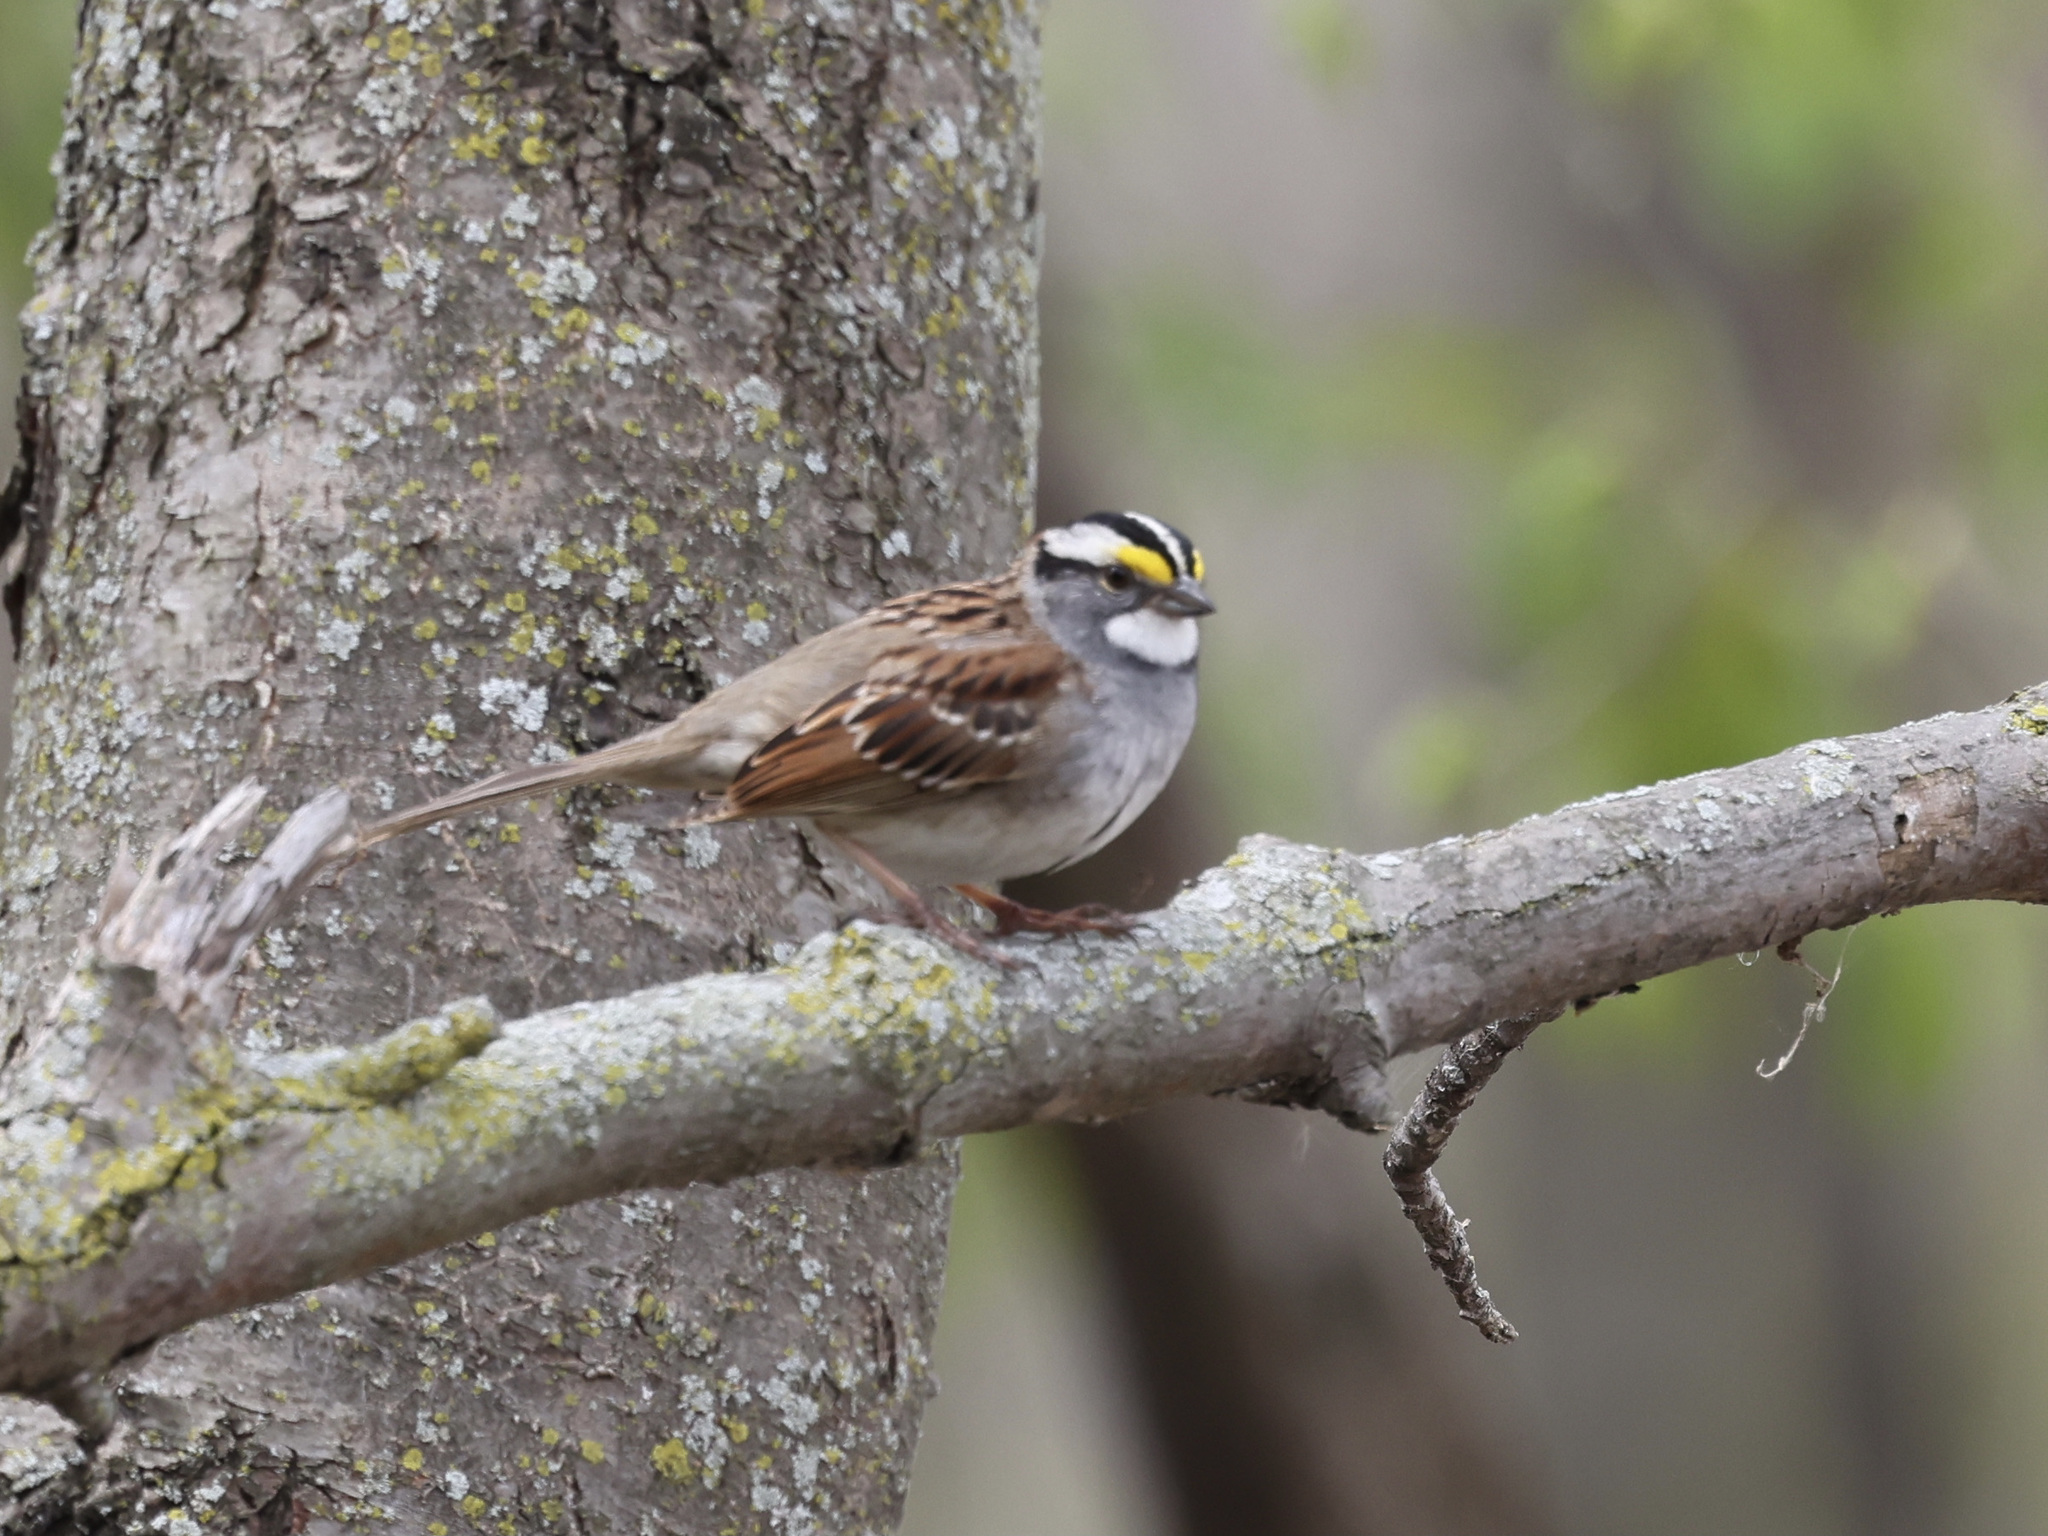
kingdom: Animalia
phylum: Chordata
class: Aves
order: Passeriformes
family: Passerellidae
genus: Zonotrichia
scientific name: Zonotrichia albicollis
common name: White-throated sparrow
